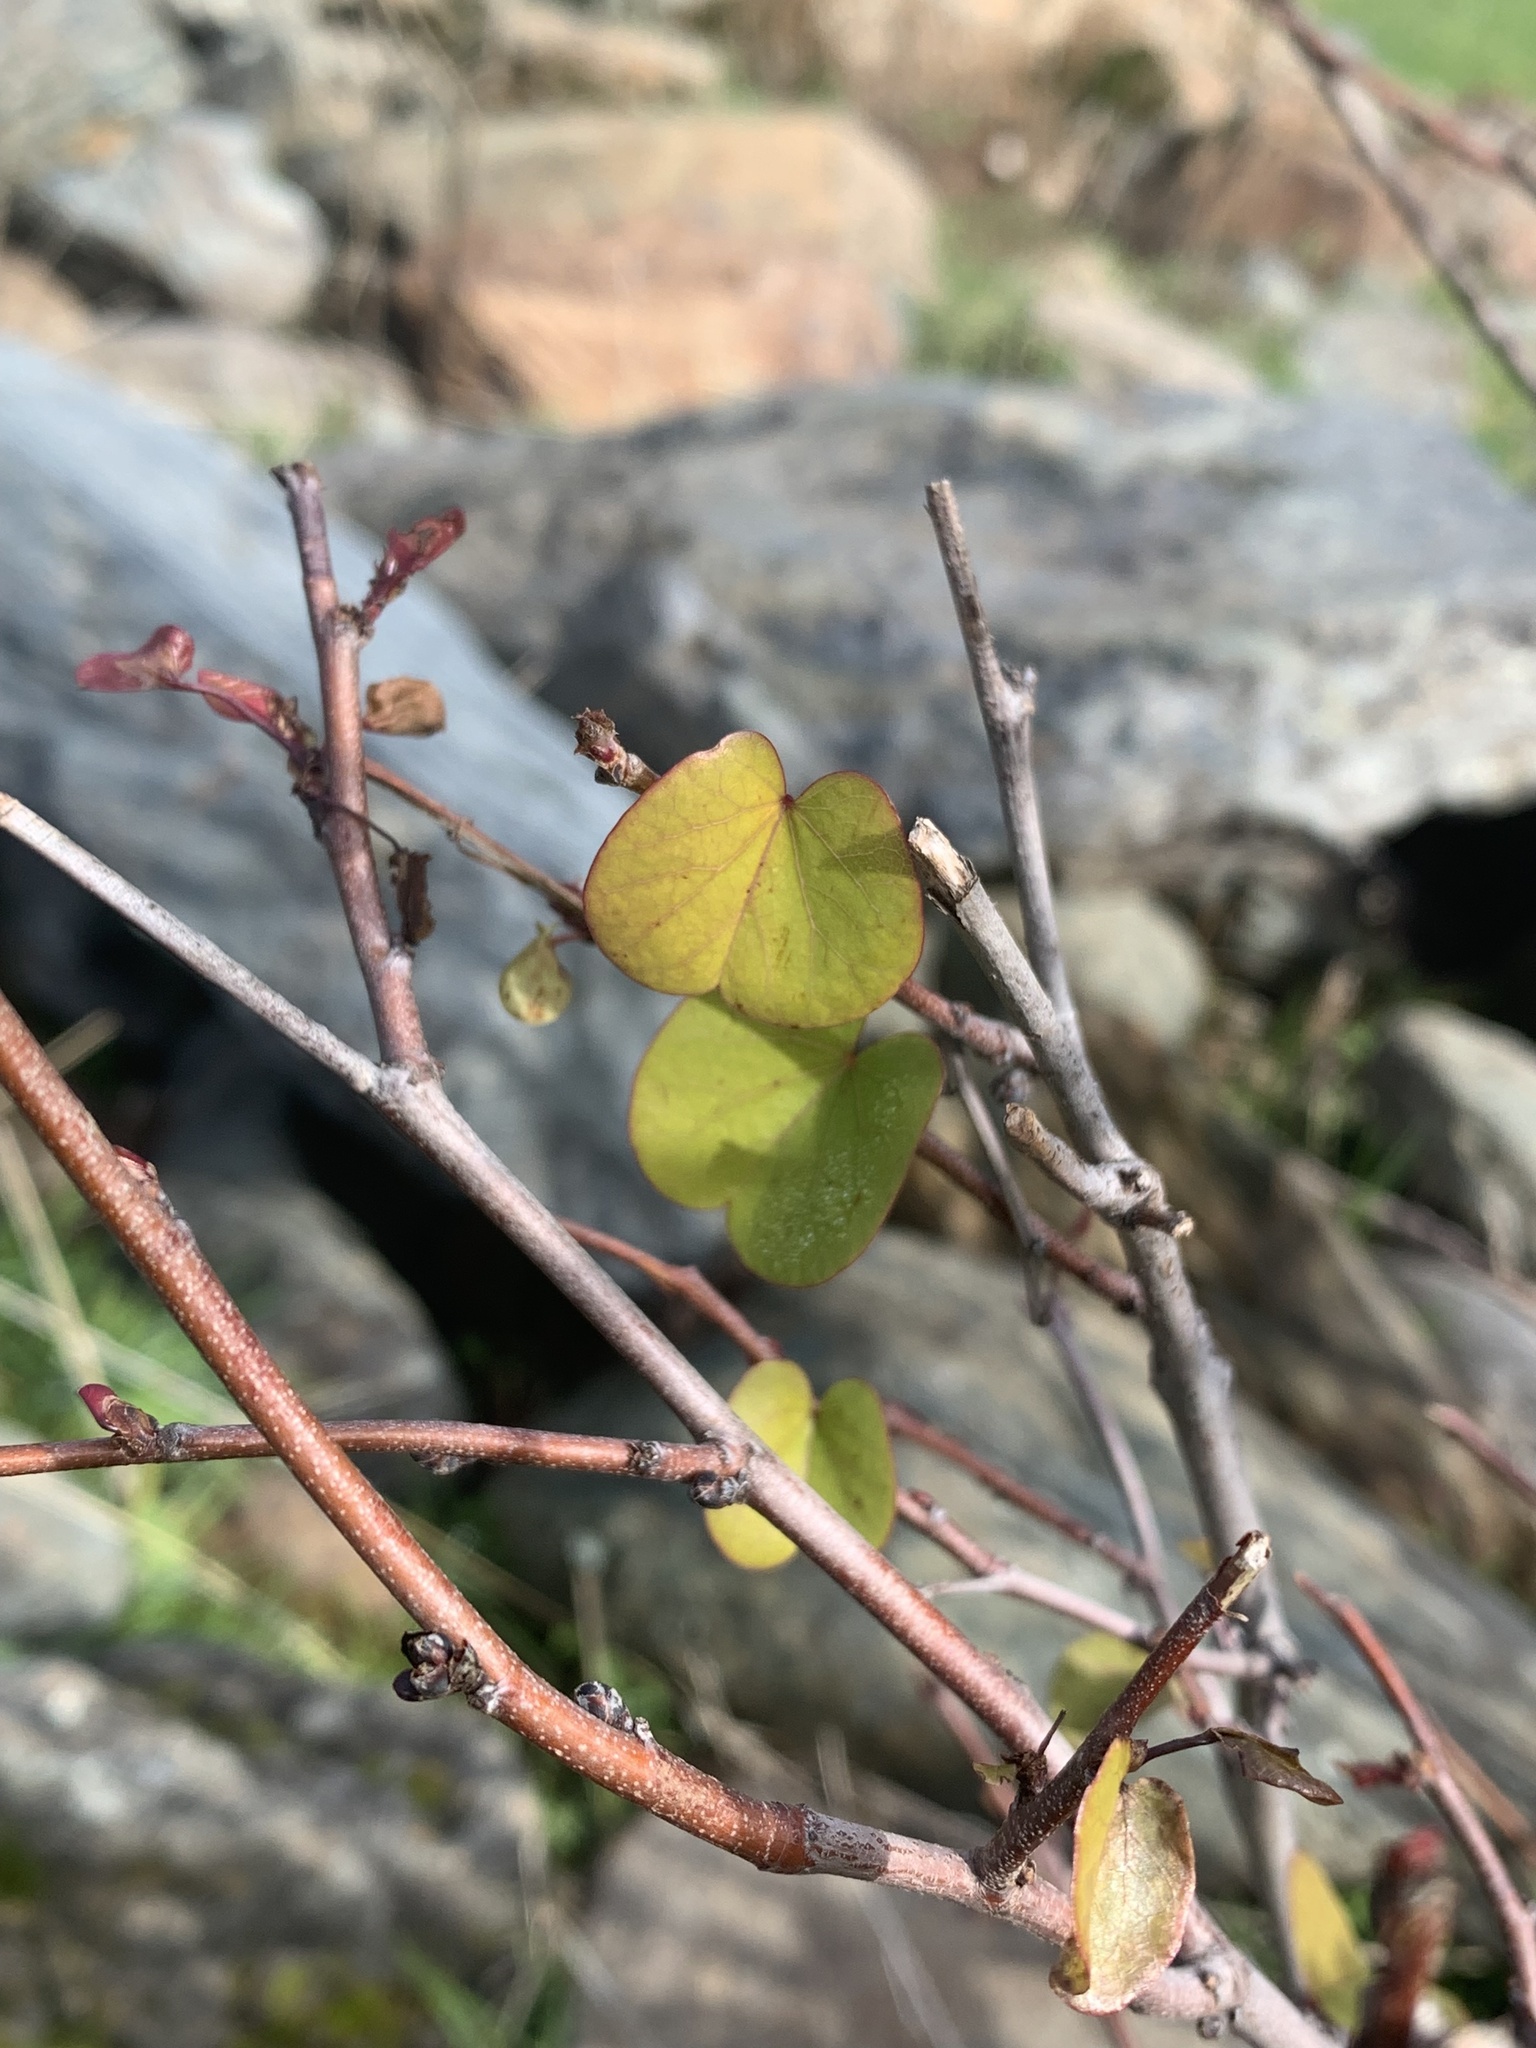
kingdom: Plantae
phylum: Tracheophyta
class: Magnoliopsida
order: Fabales
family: Fabaceae
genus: Cercis
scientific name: Cercis occidentalis
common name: California redbud
